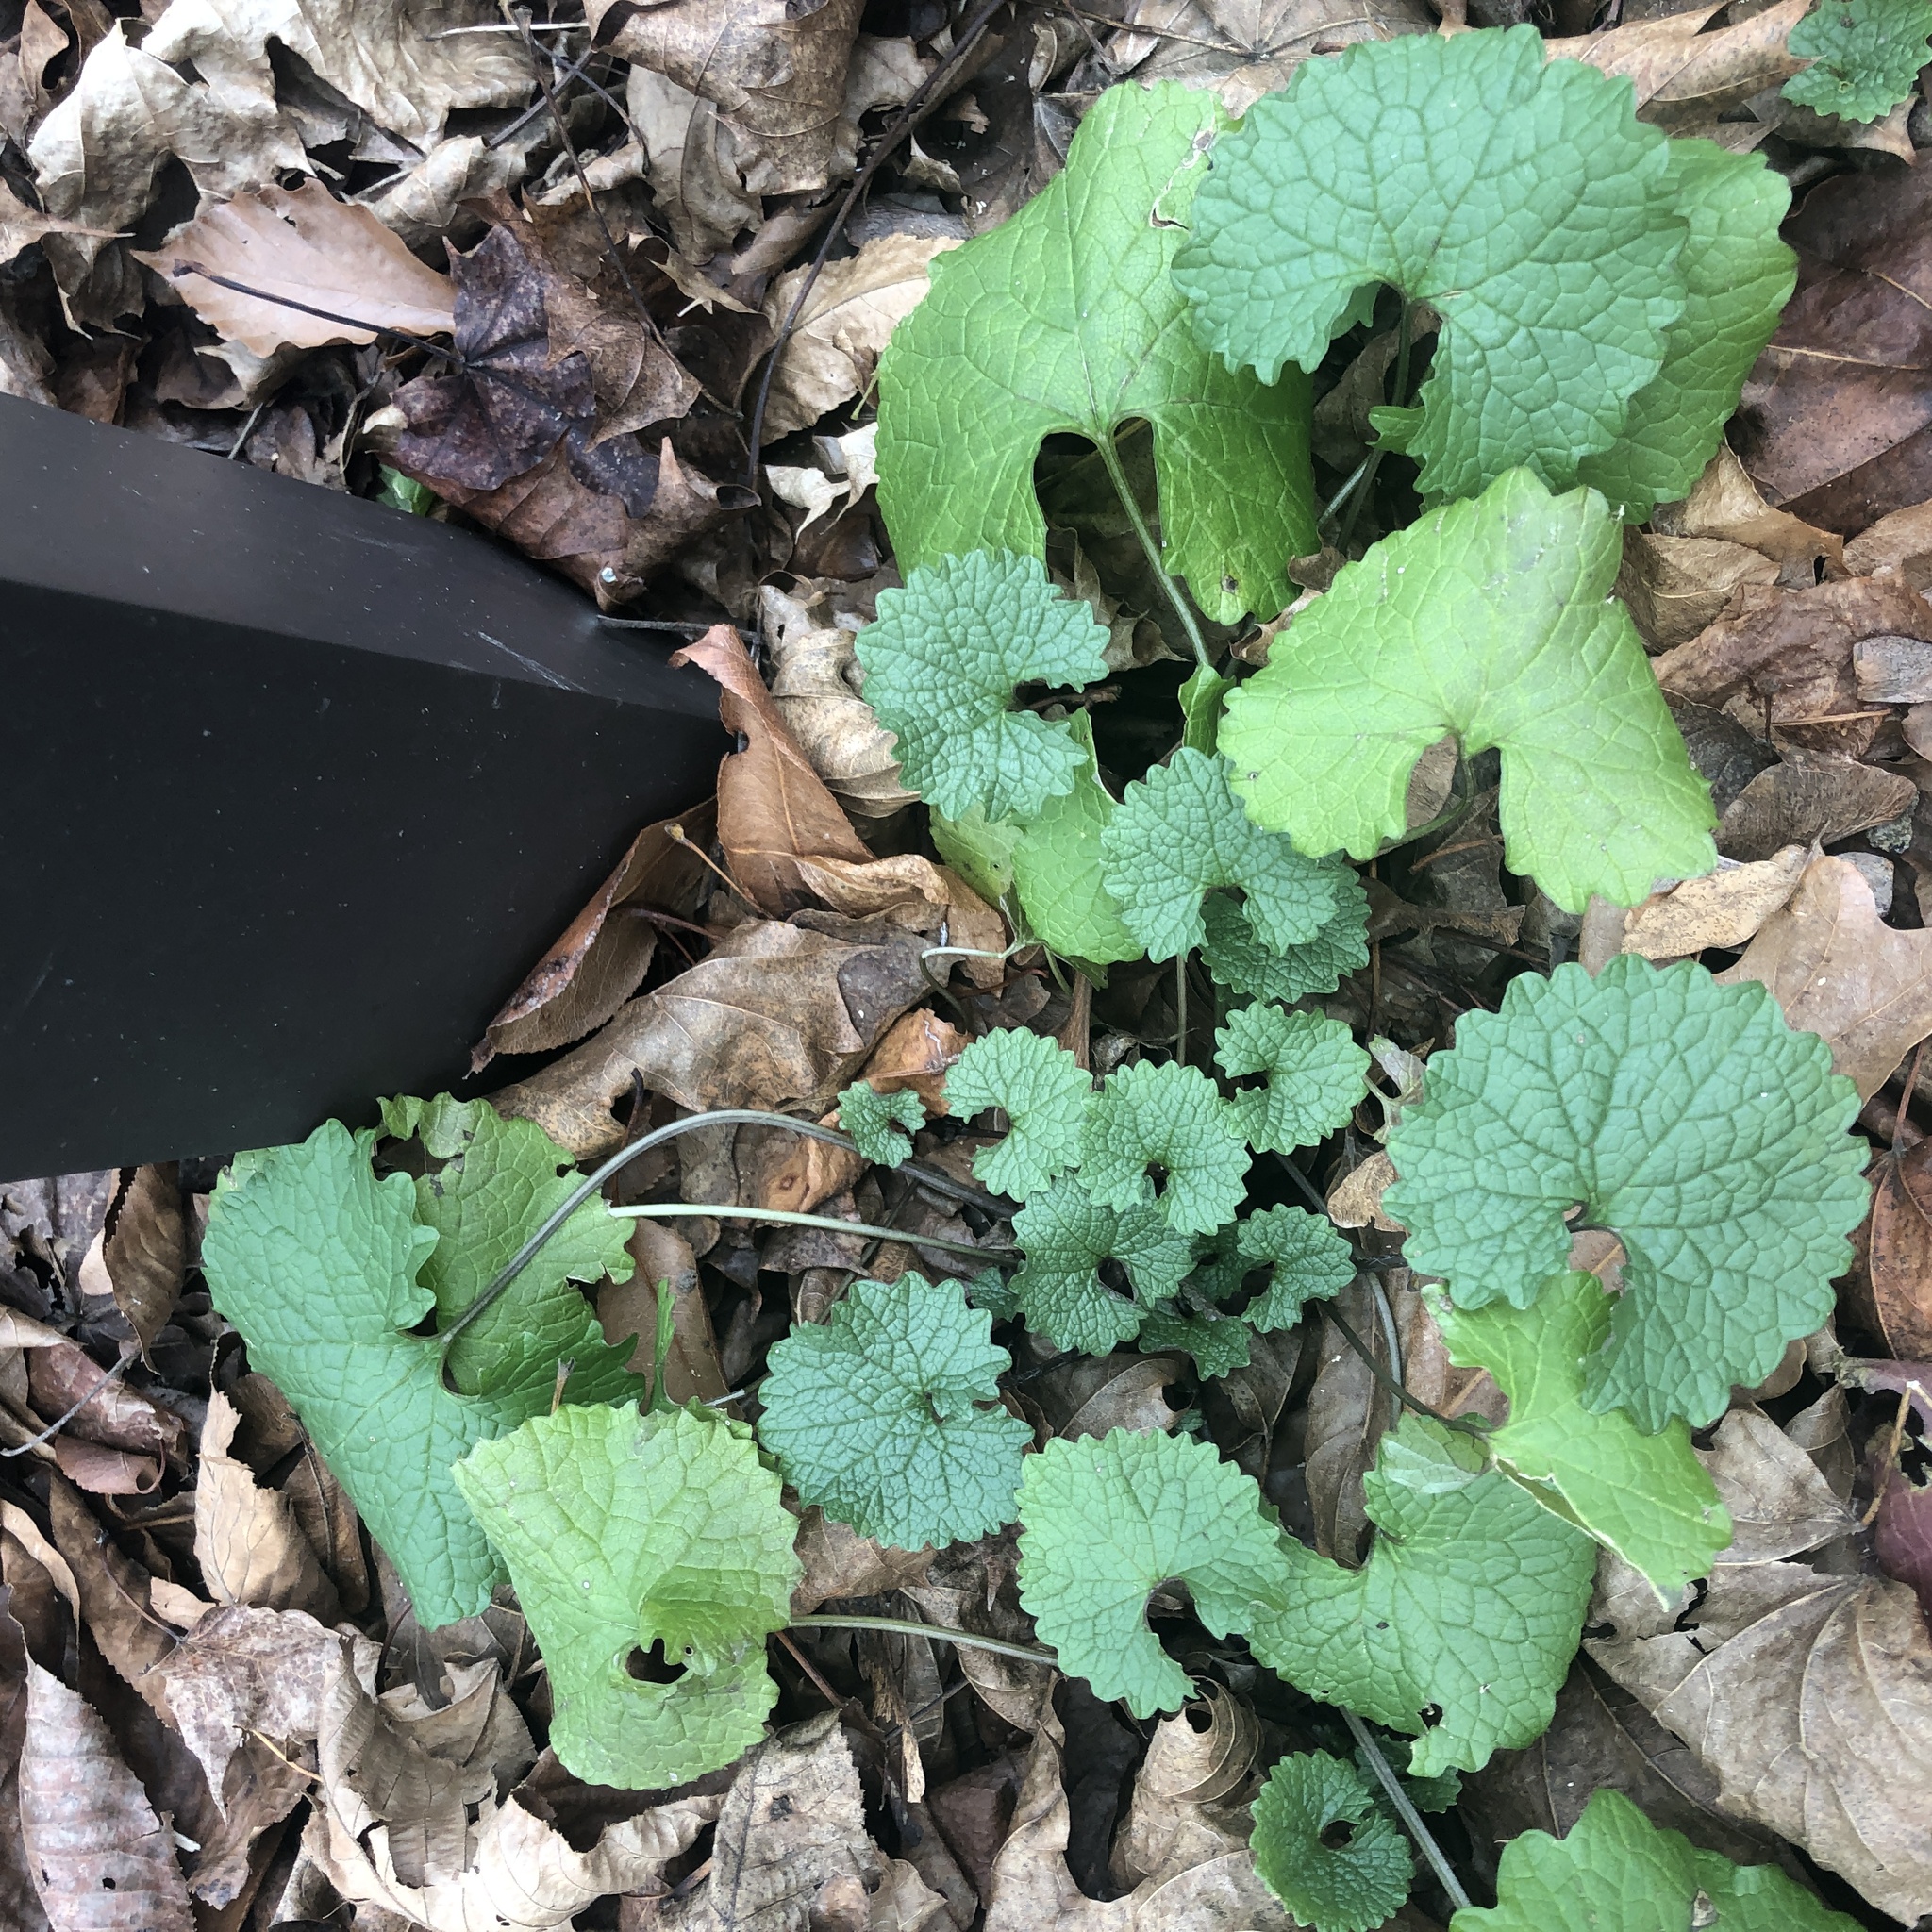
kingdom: Plantae
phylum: Tracheophyta
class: Magnoliopsida
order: Brassicales
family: Brassicaceae
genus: Alliaria
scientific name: Alliaria petiolata
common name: Garlic mustard
